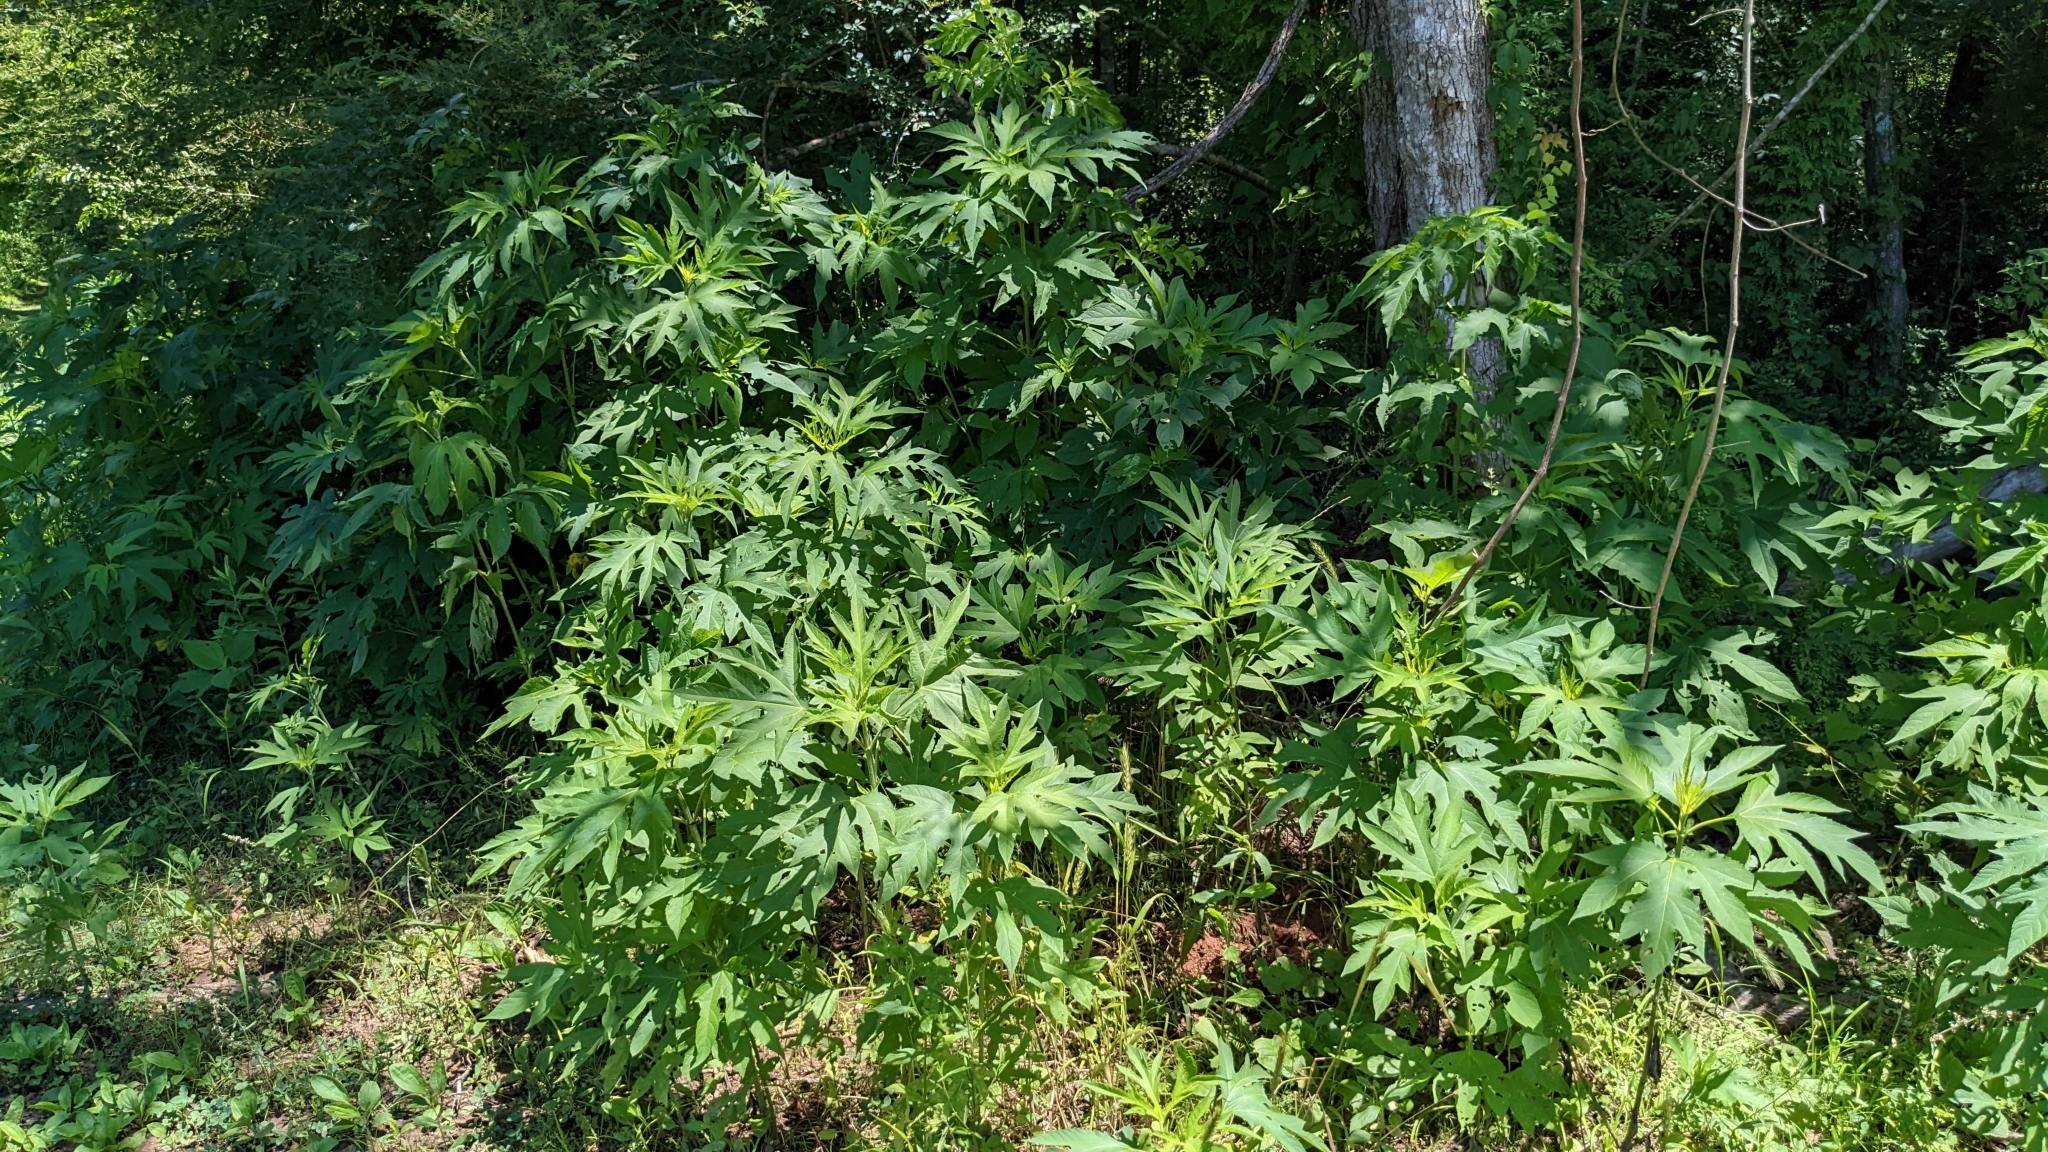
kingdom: Plantae
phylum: Tracheophyta
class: Magnoliopsida
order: Asterales
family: Asteraceae
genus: Ambrosia
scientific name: Ambrosia trifida
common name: Giant ragweed
